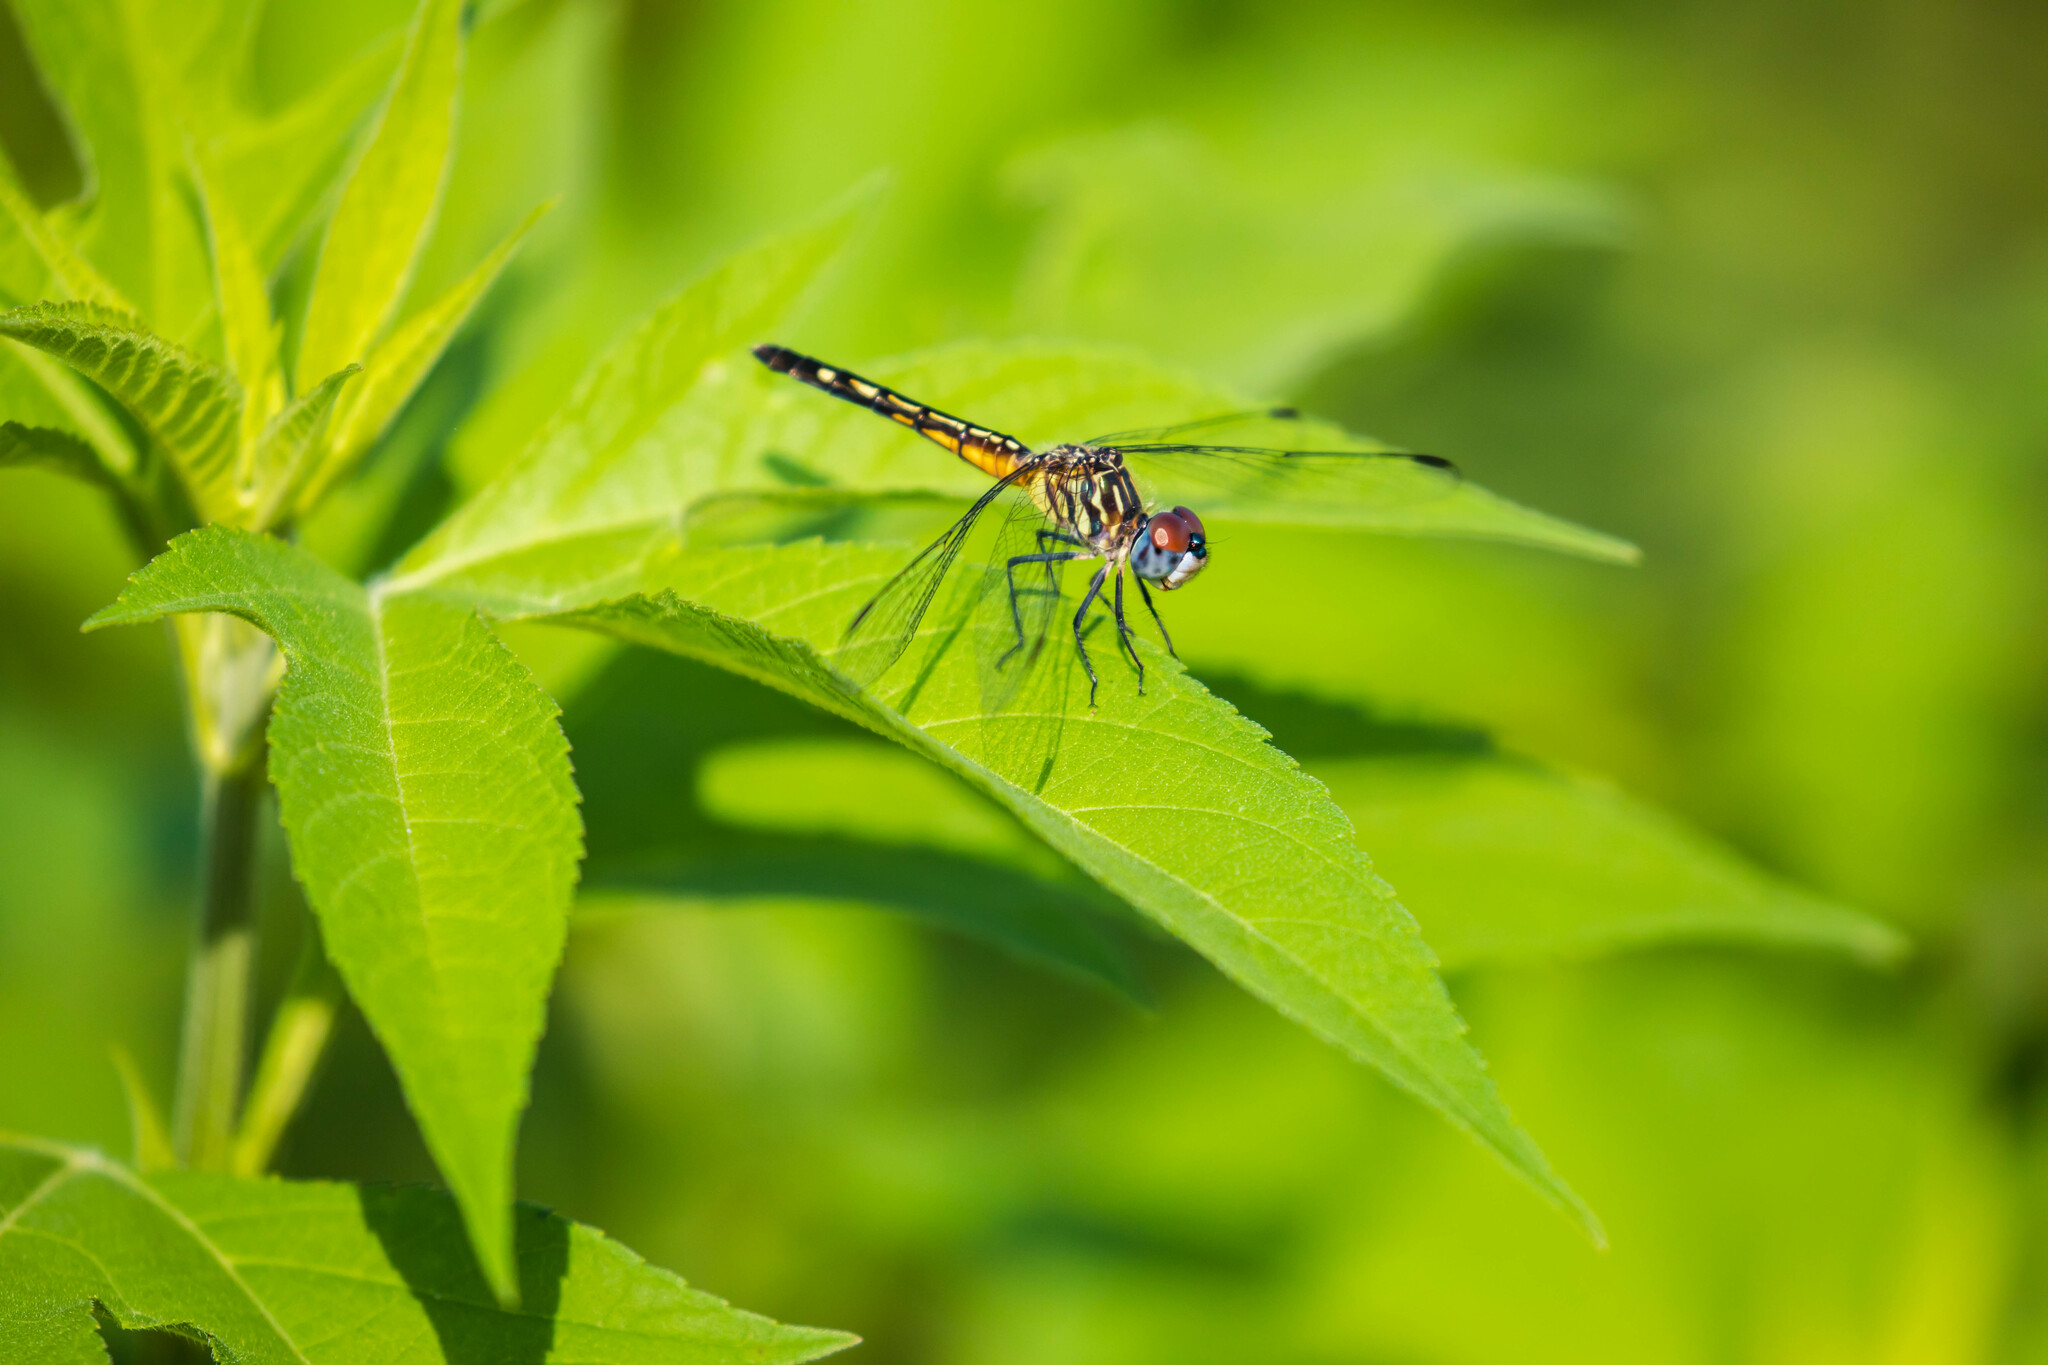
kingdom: Animalia
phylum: Arthropoda
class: Insecta
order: Odonata
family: Libellulidae
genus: Pachydiplax
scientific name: Pachydiplax longipennis
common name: Blue dasher
